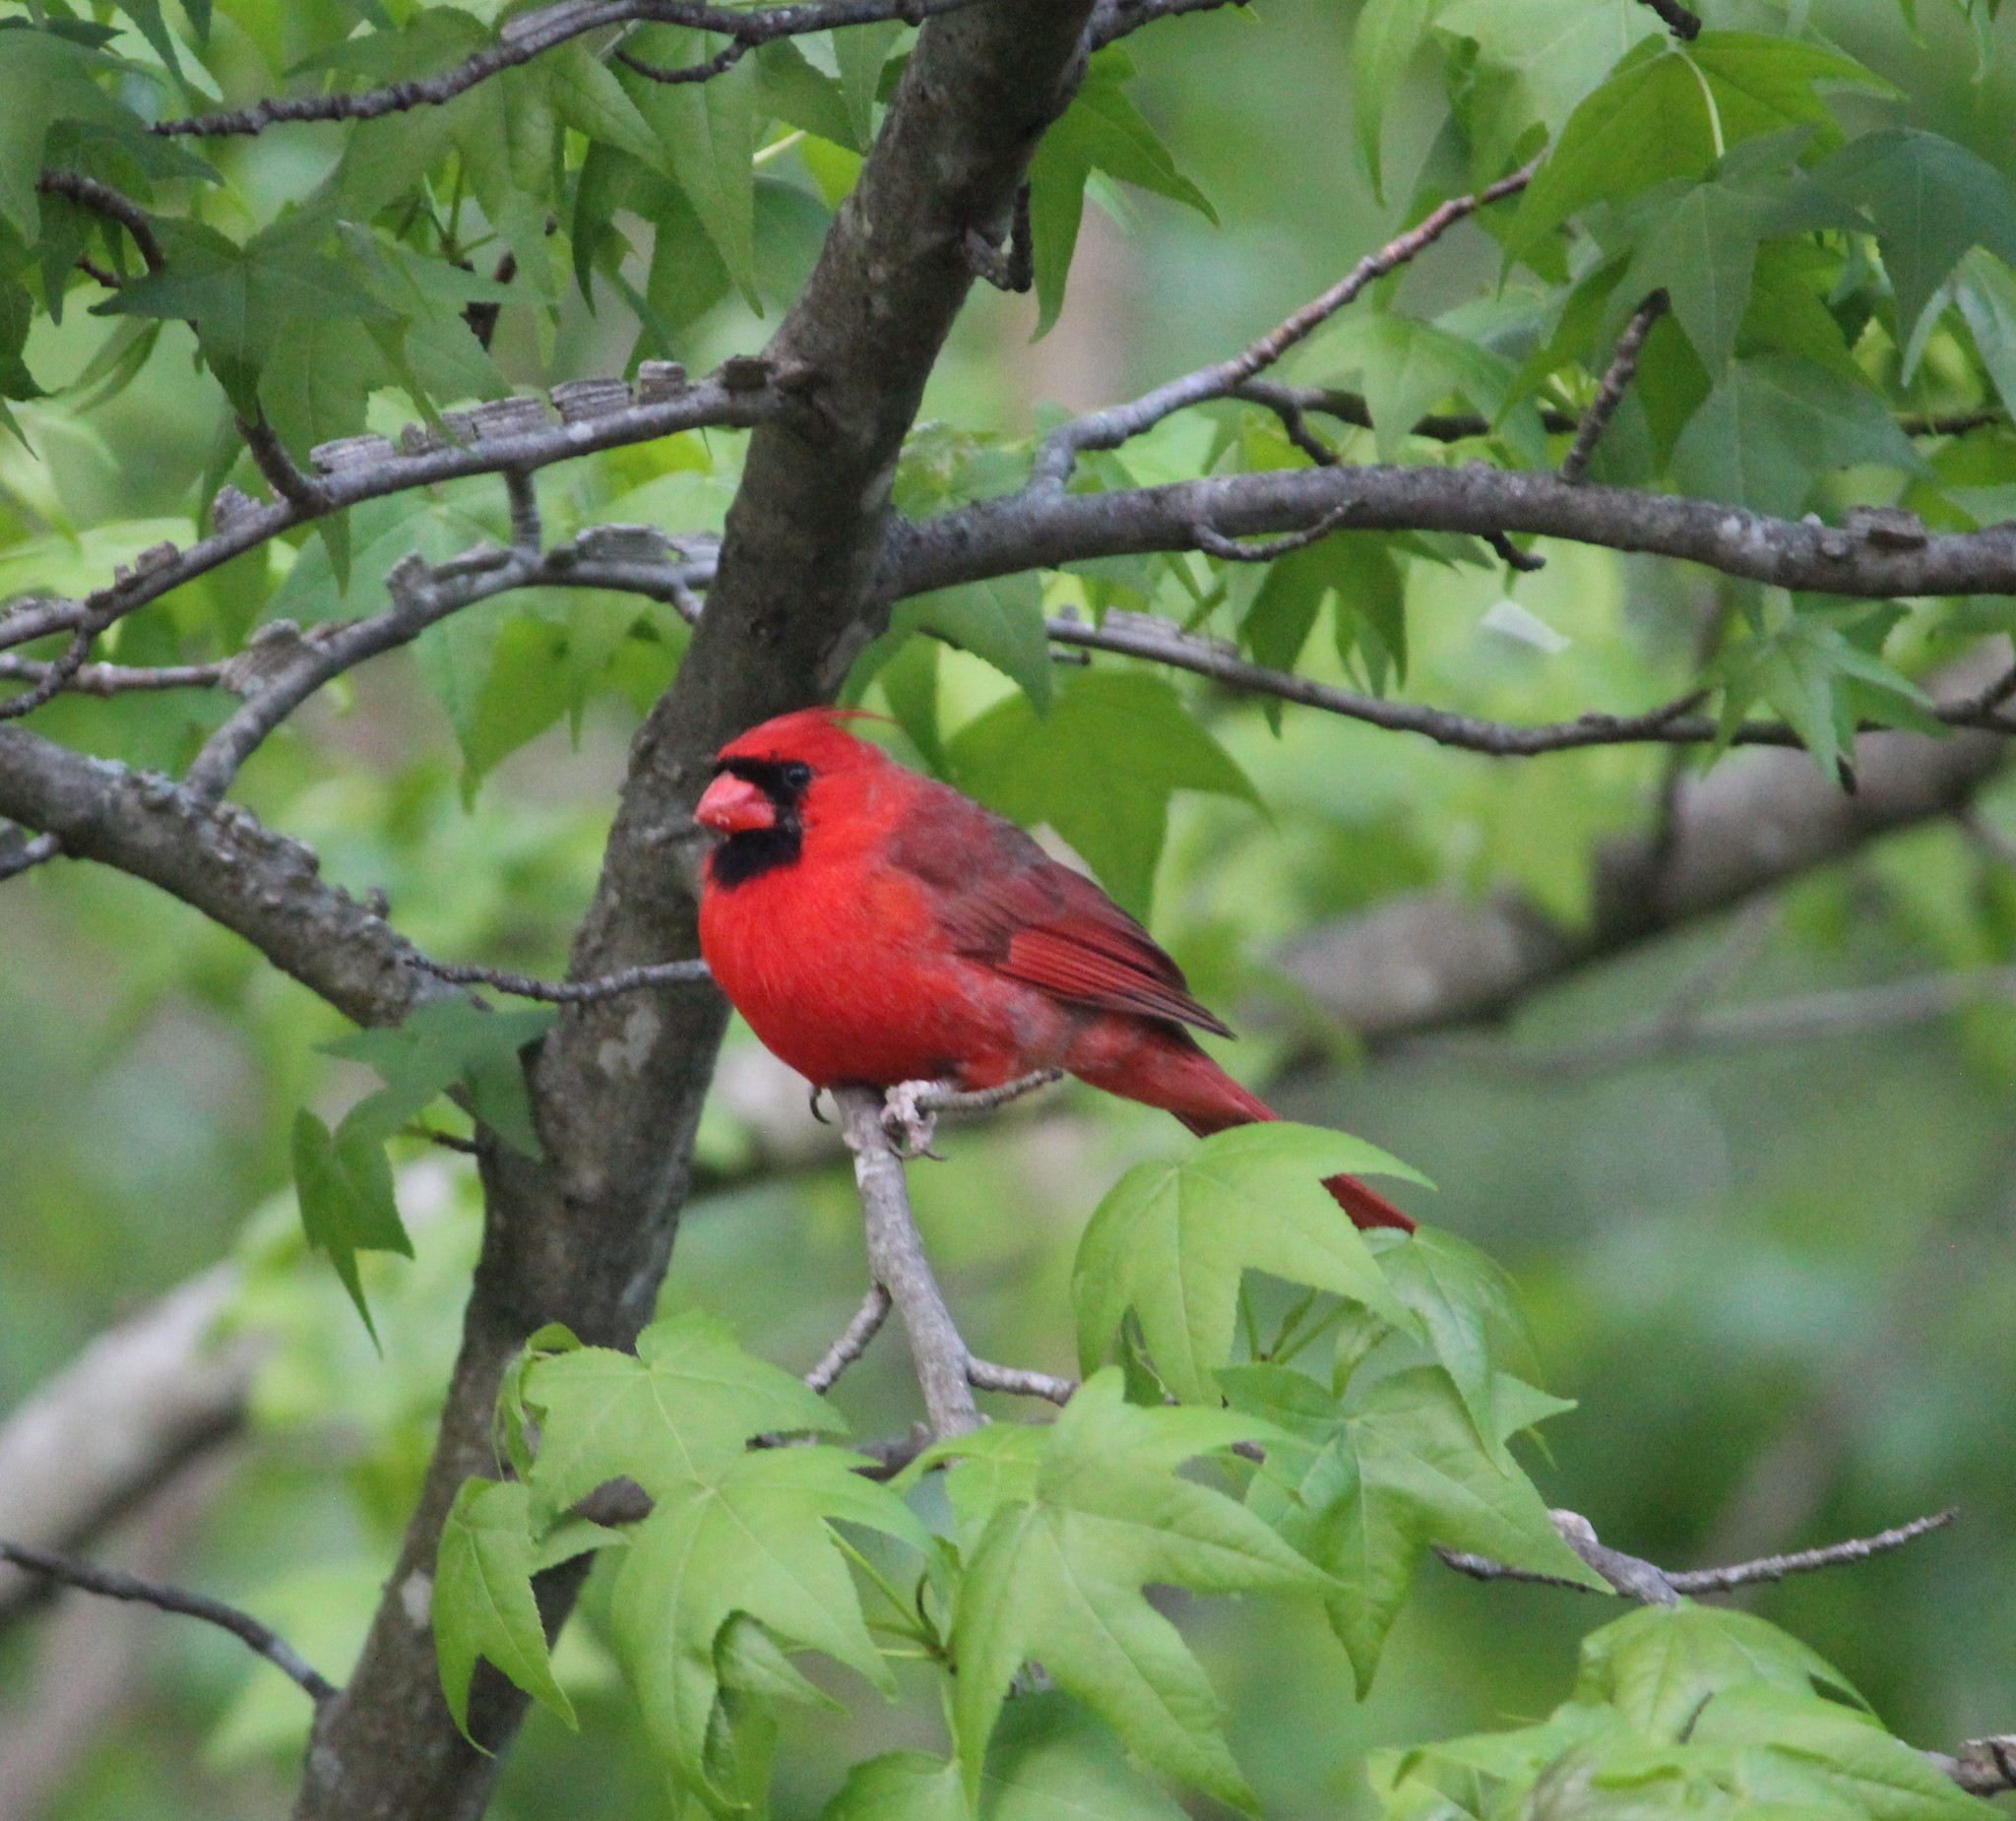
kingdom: Animalia
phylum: Chordata
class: Aves
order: Passeriformes
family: Cardinalidae
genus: Cardinalis
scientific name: Cardinalis cardinalis
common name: Northern cardinal
